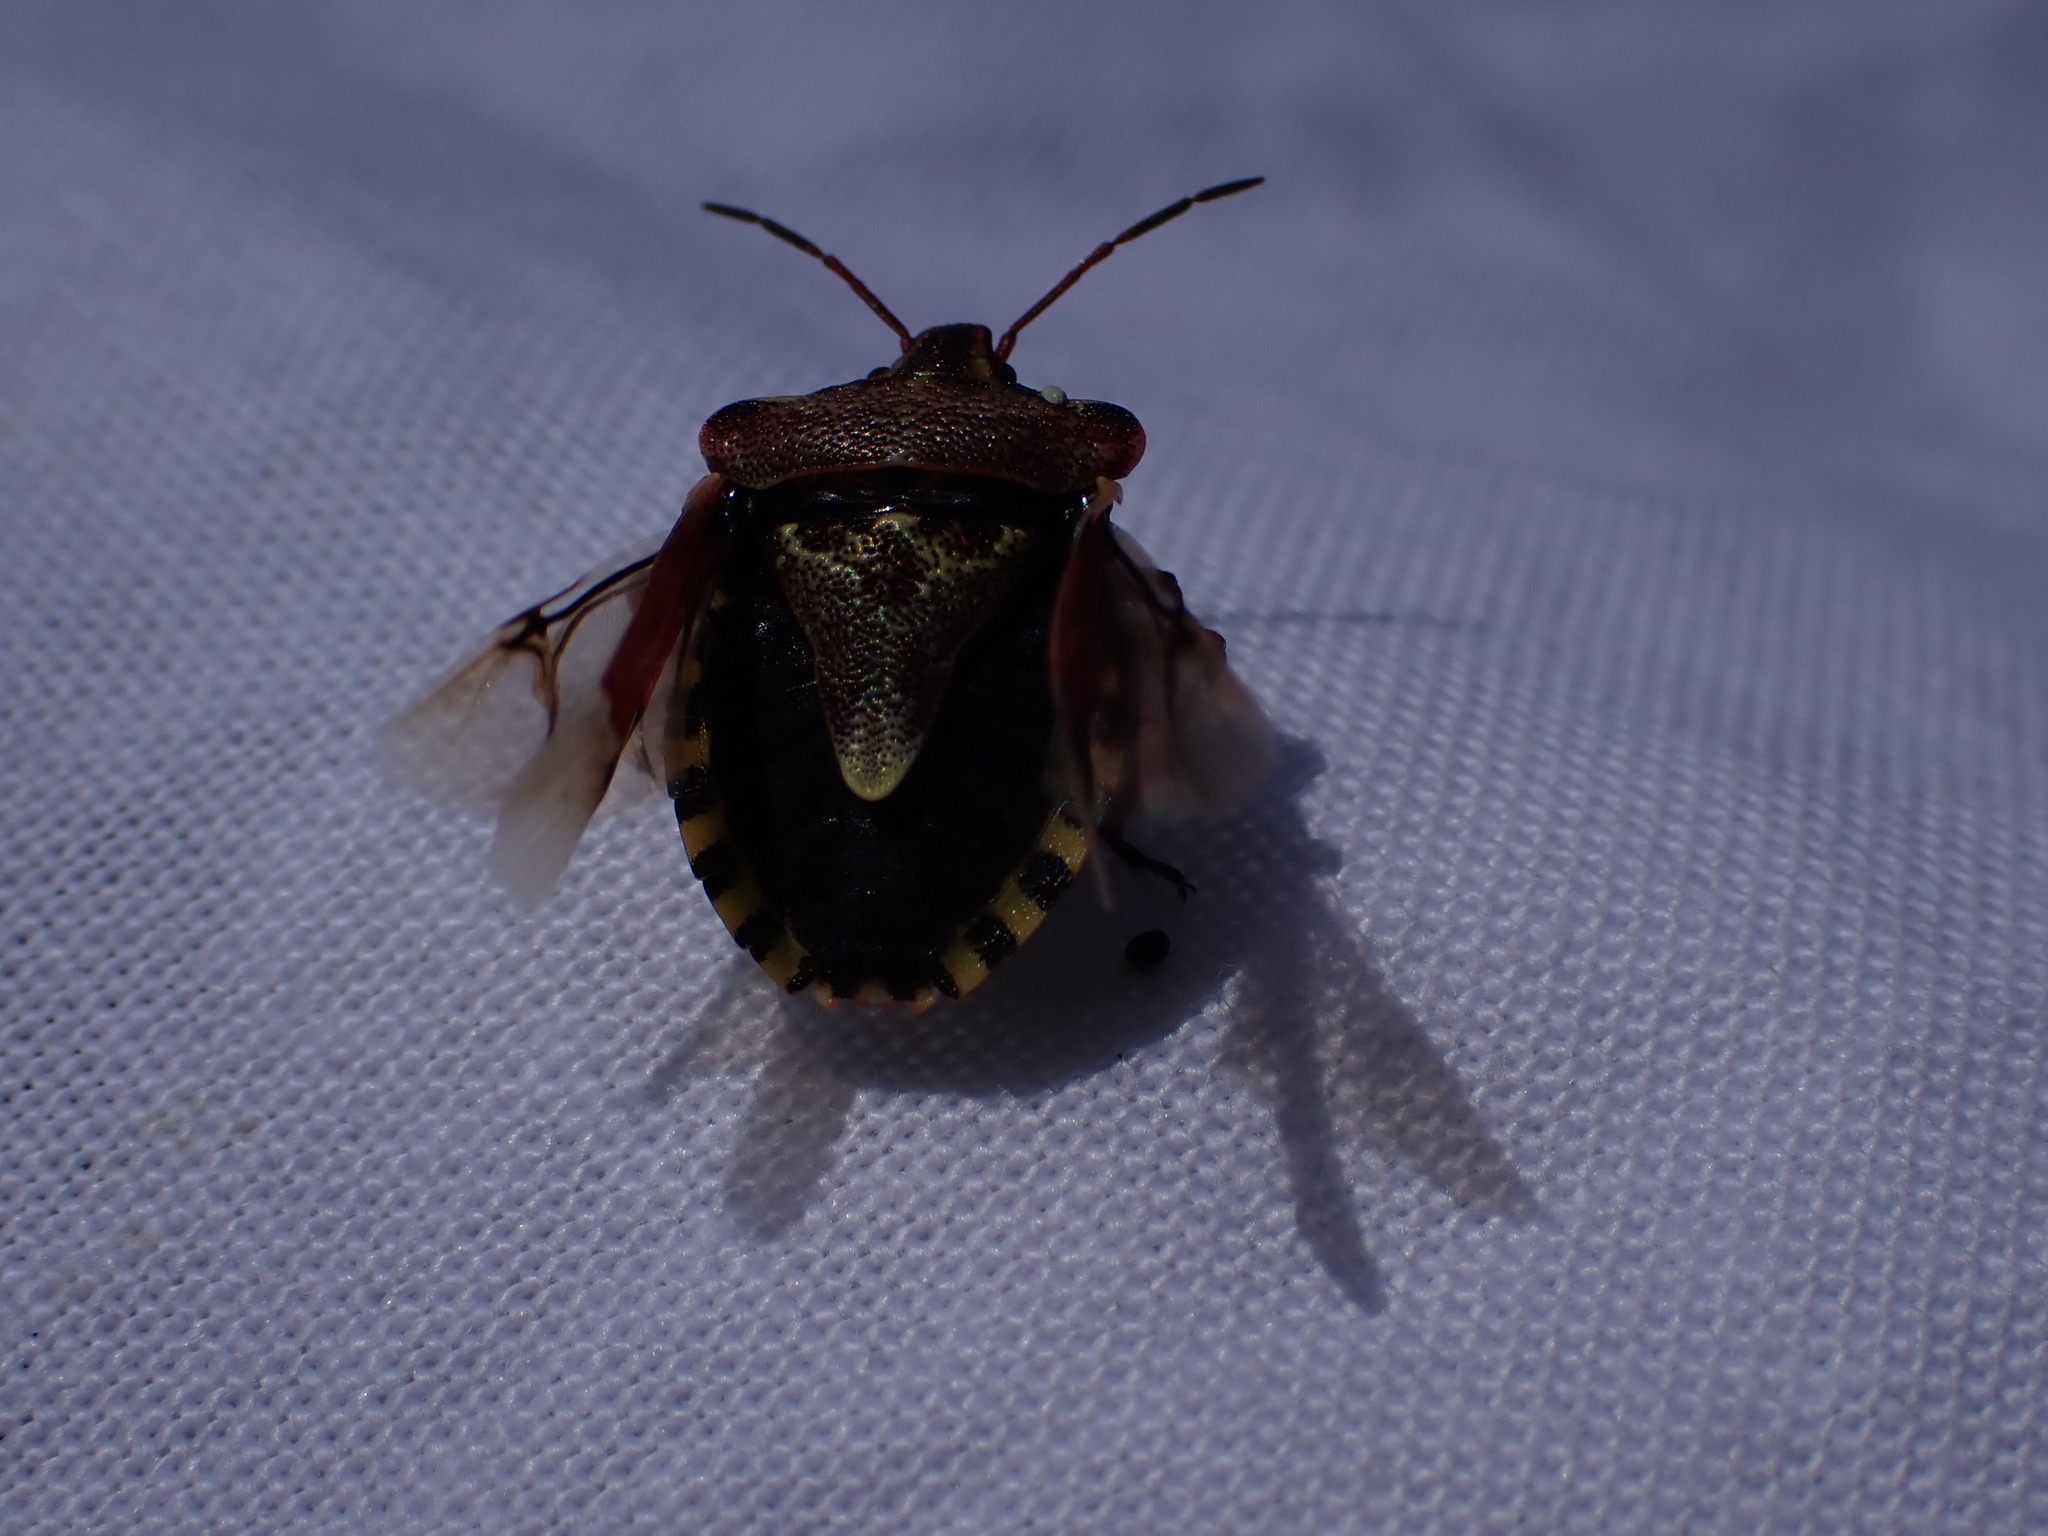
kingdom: Animalia
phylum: Arthropoda
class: Insecta
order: Hemiptera
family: Miridae
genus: Orthops
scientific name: Orthops kalmii
